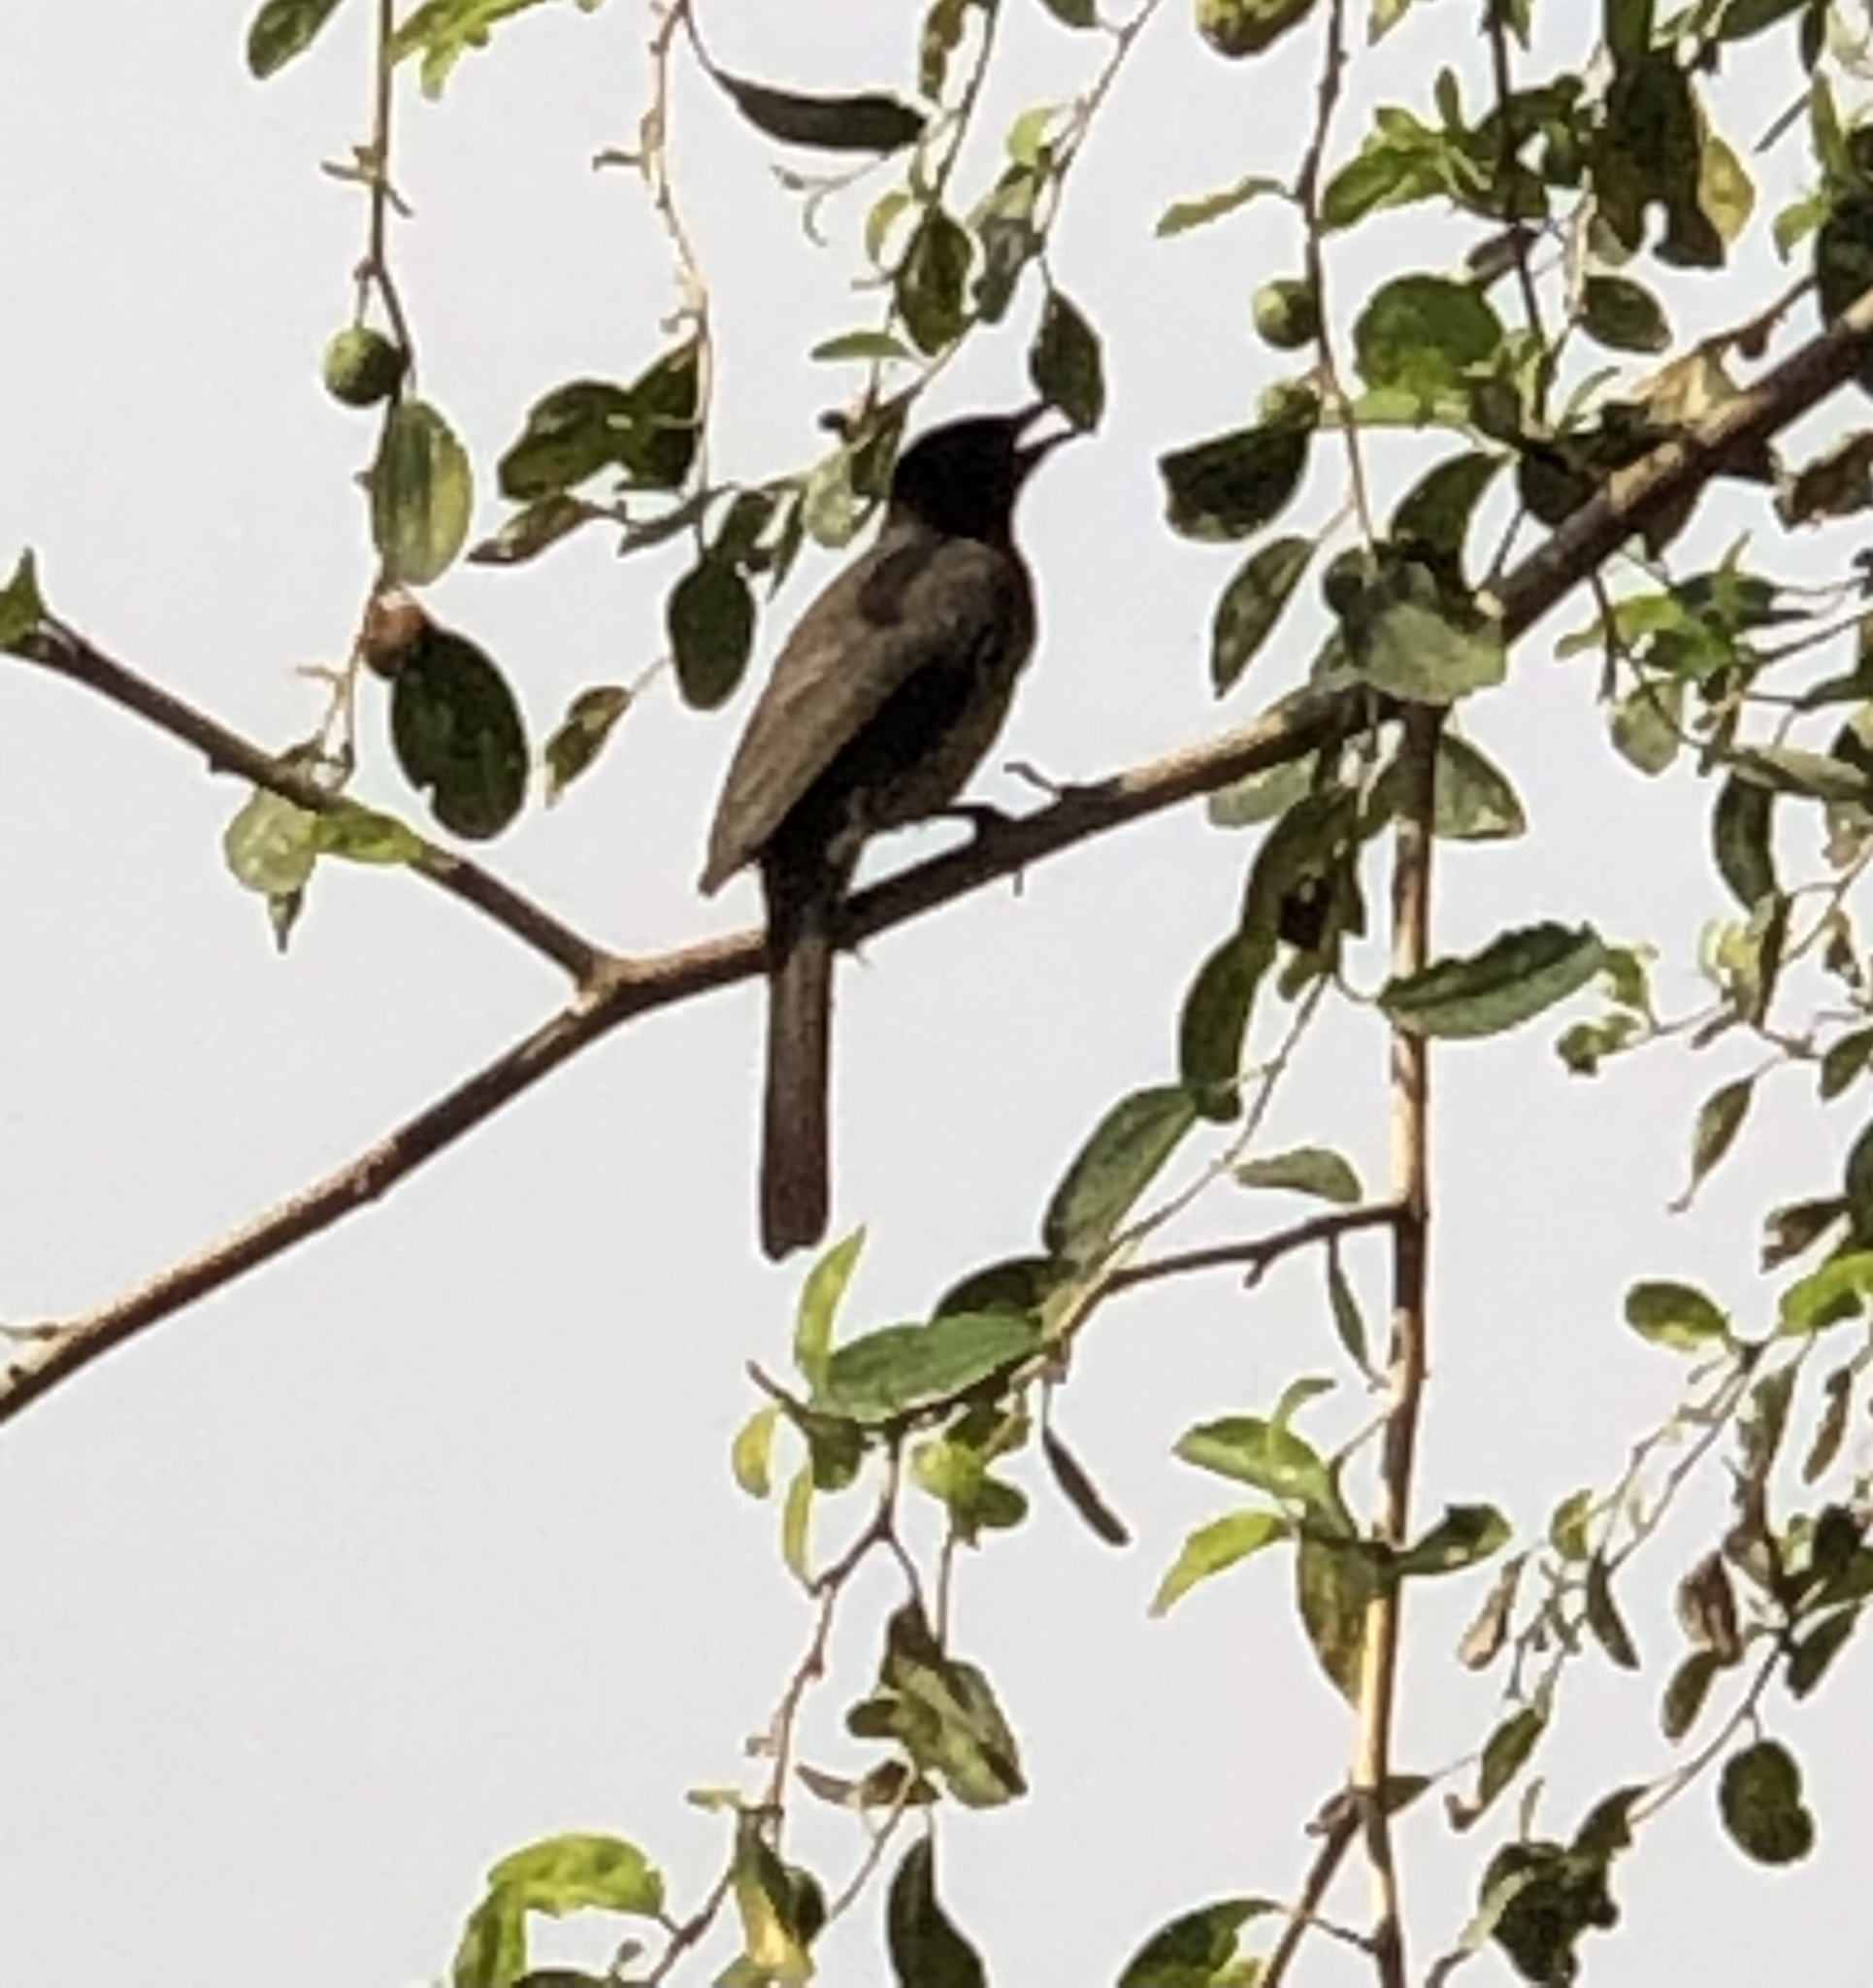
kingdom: Animalia
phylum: Chordata
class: Aves
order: Passeriformes
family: Pycnonotidae
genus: Pycnonotus
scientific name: Pycnonotus barbatus
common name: Common bulbul
